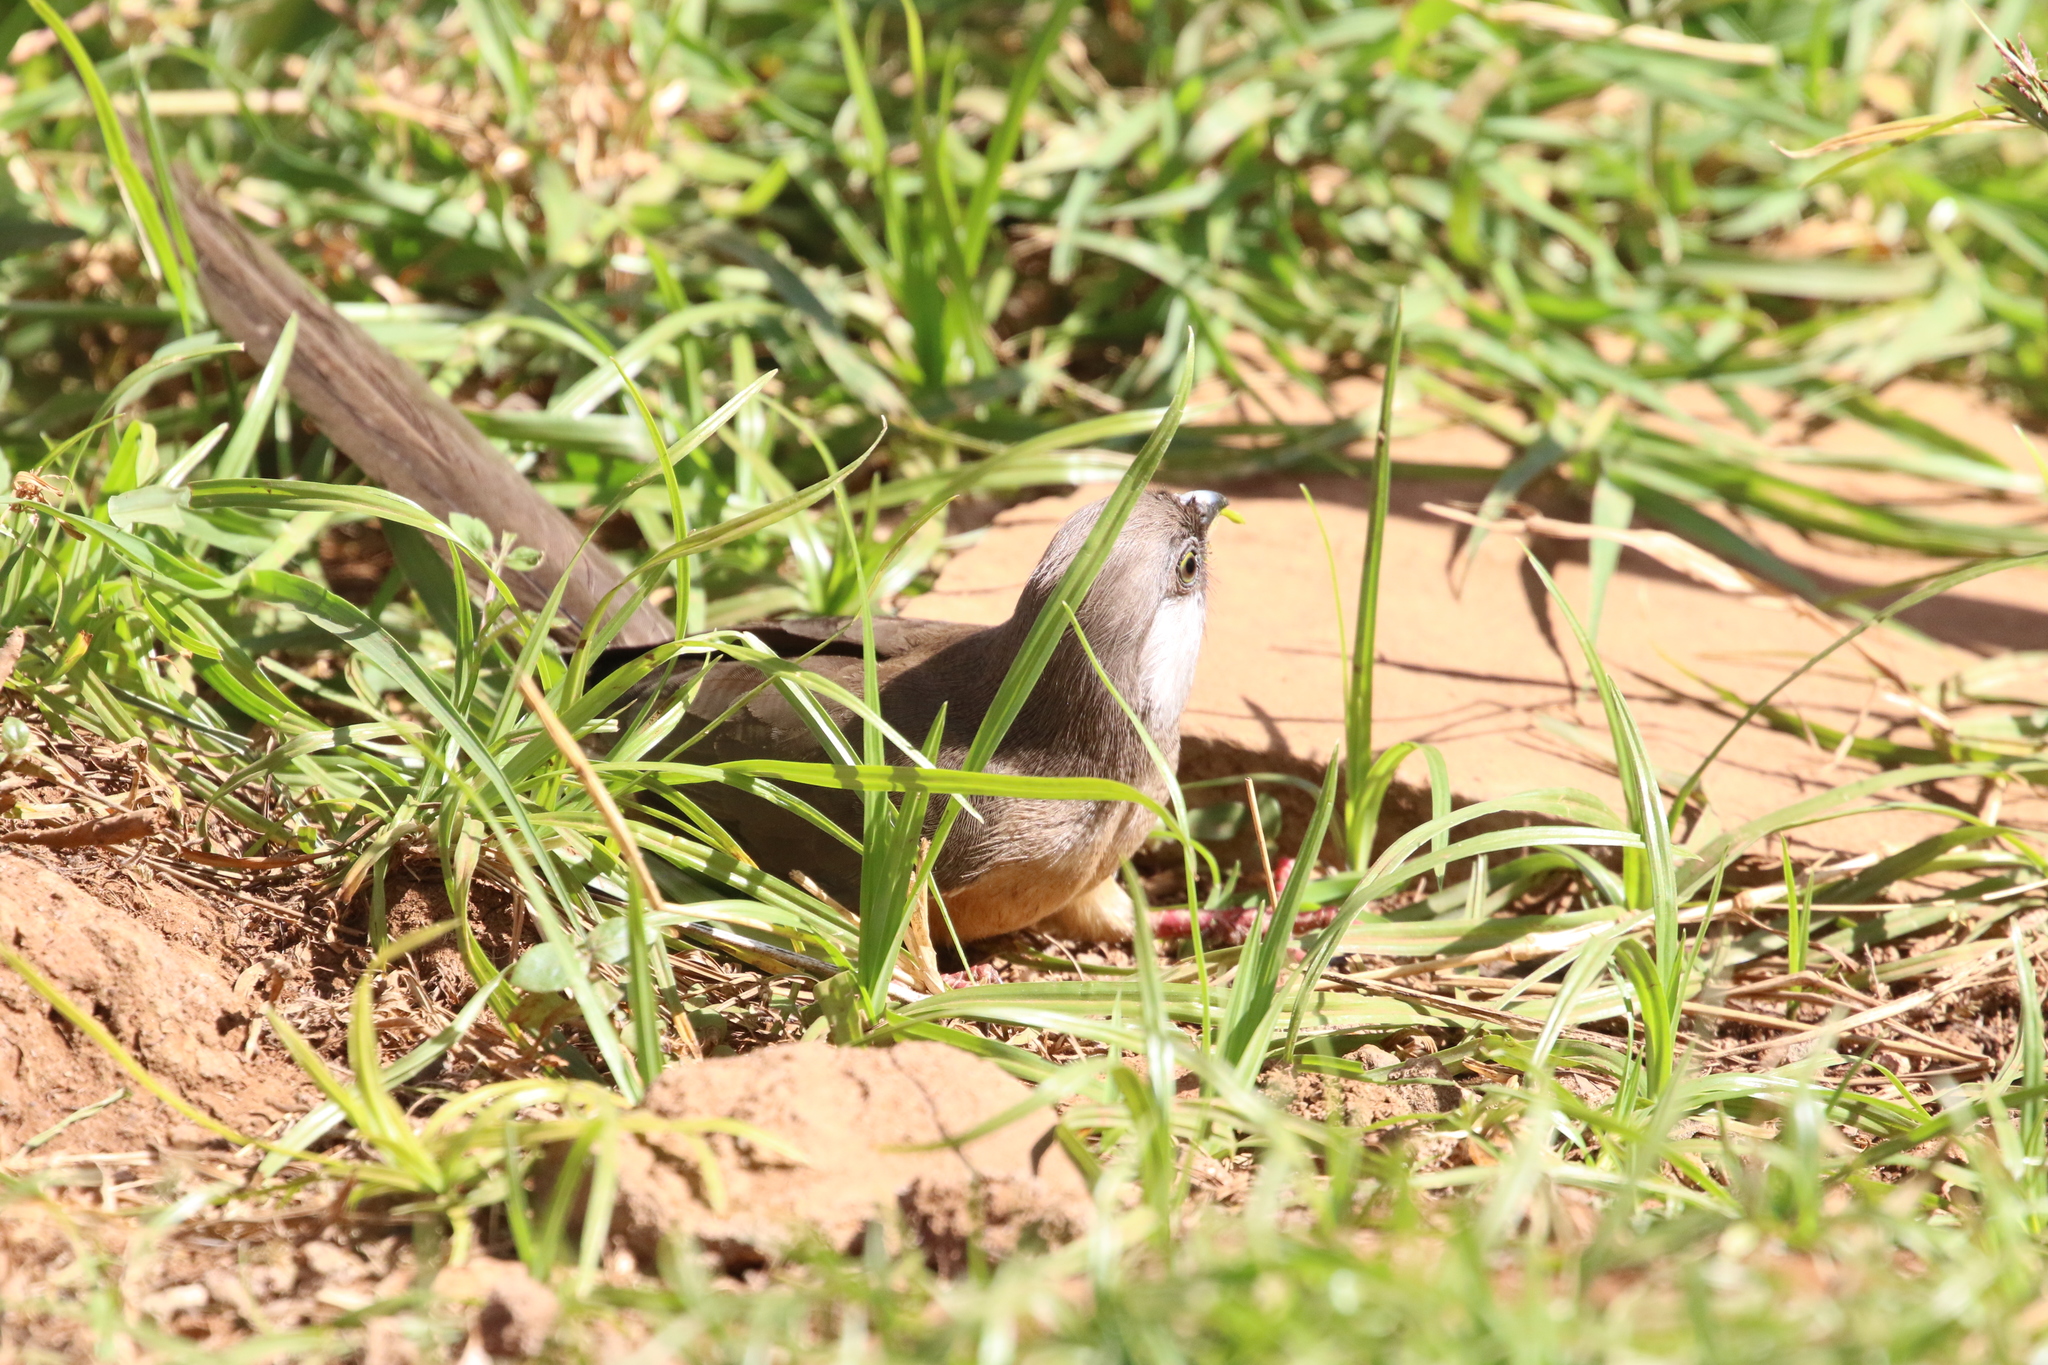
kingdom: Animalia
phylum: Chordata
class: Aves
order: Coliiformes
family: Coliidae
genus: Colius
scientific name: Colius striatus
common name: Speckled mousebird
